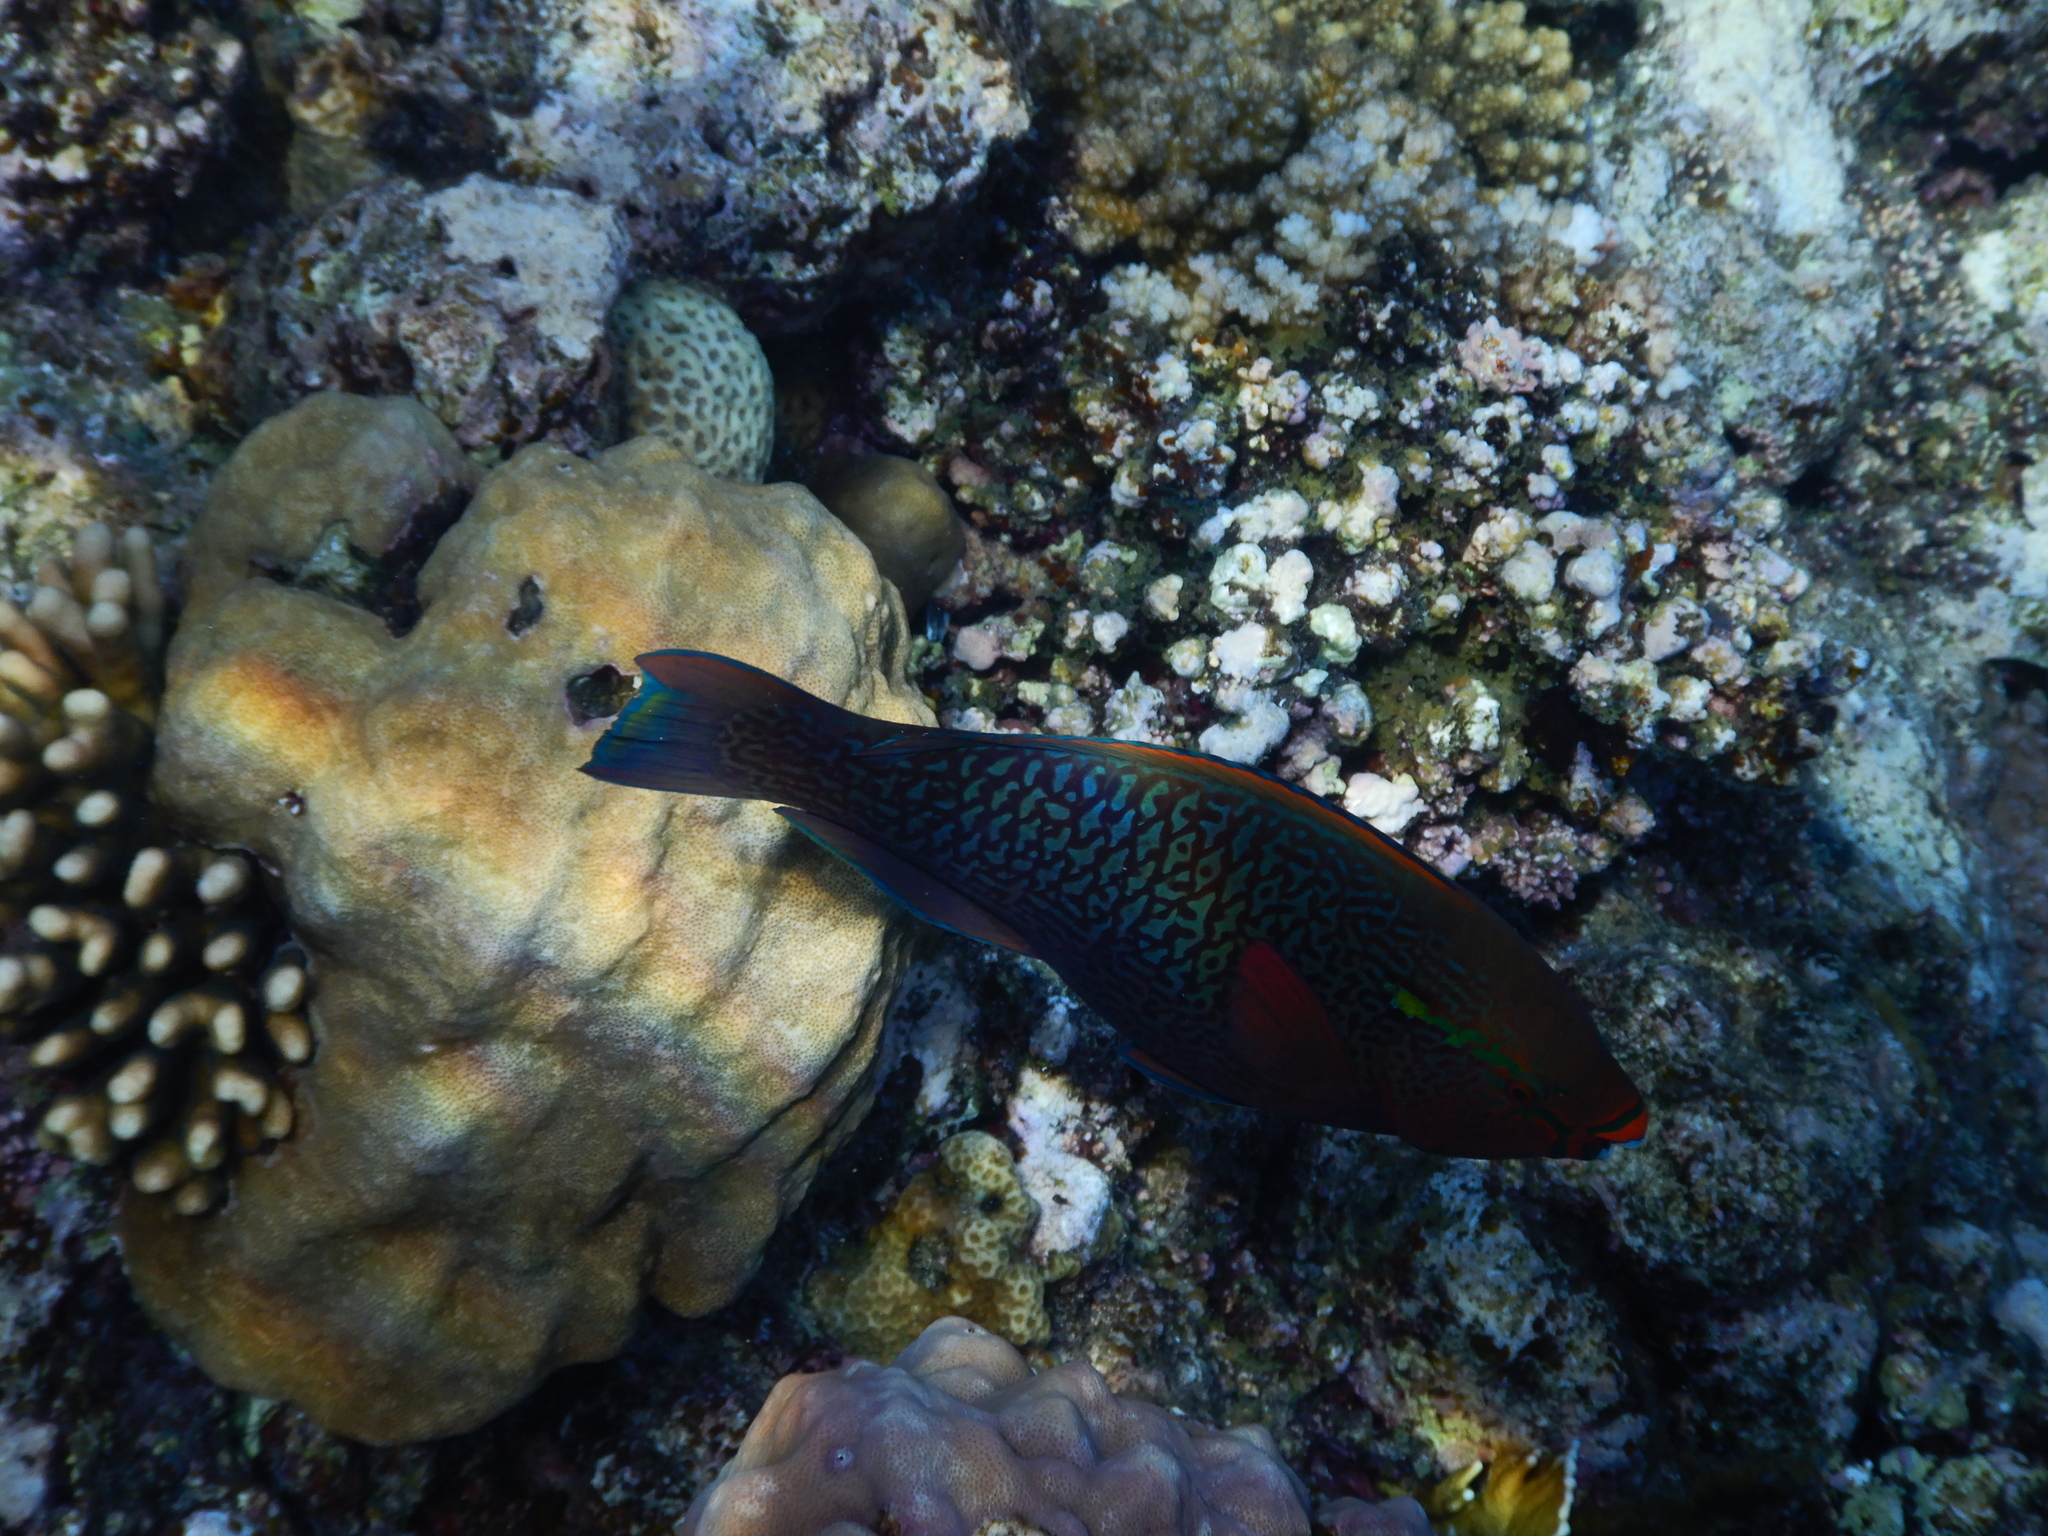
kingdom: Animalia
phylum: Chordata
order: Perciformes
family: Scaridae
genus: Scarus
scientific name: Scarus niger
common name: Dusky parrotfish
